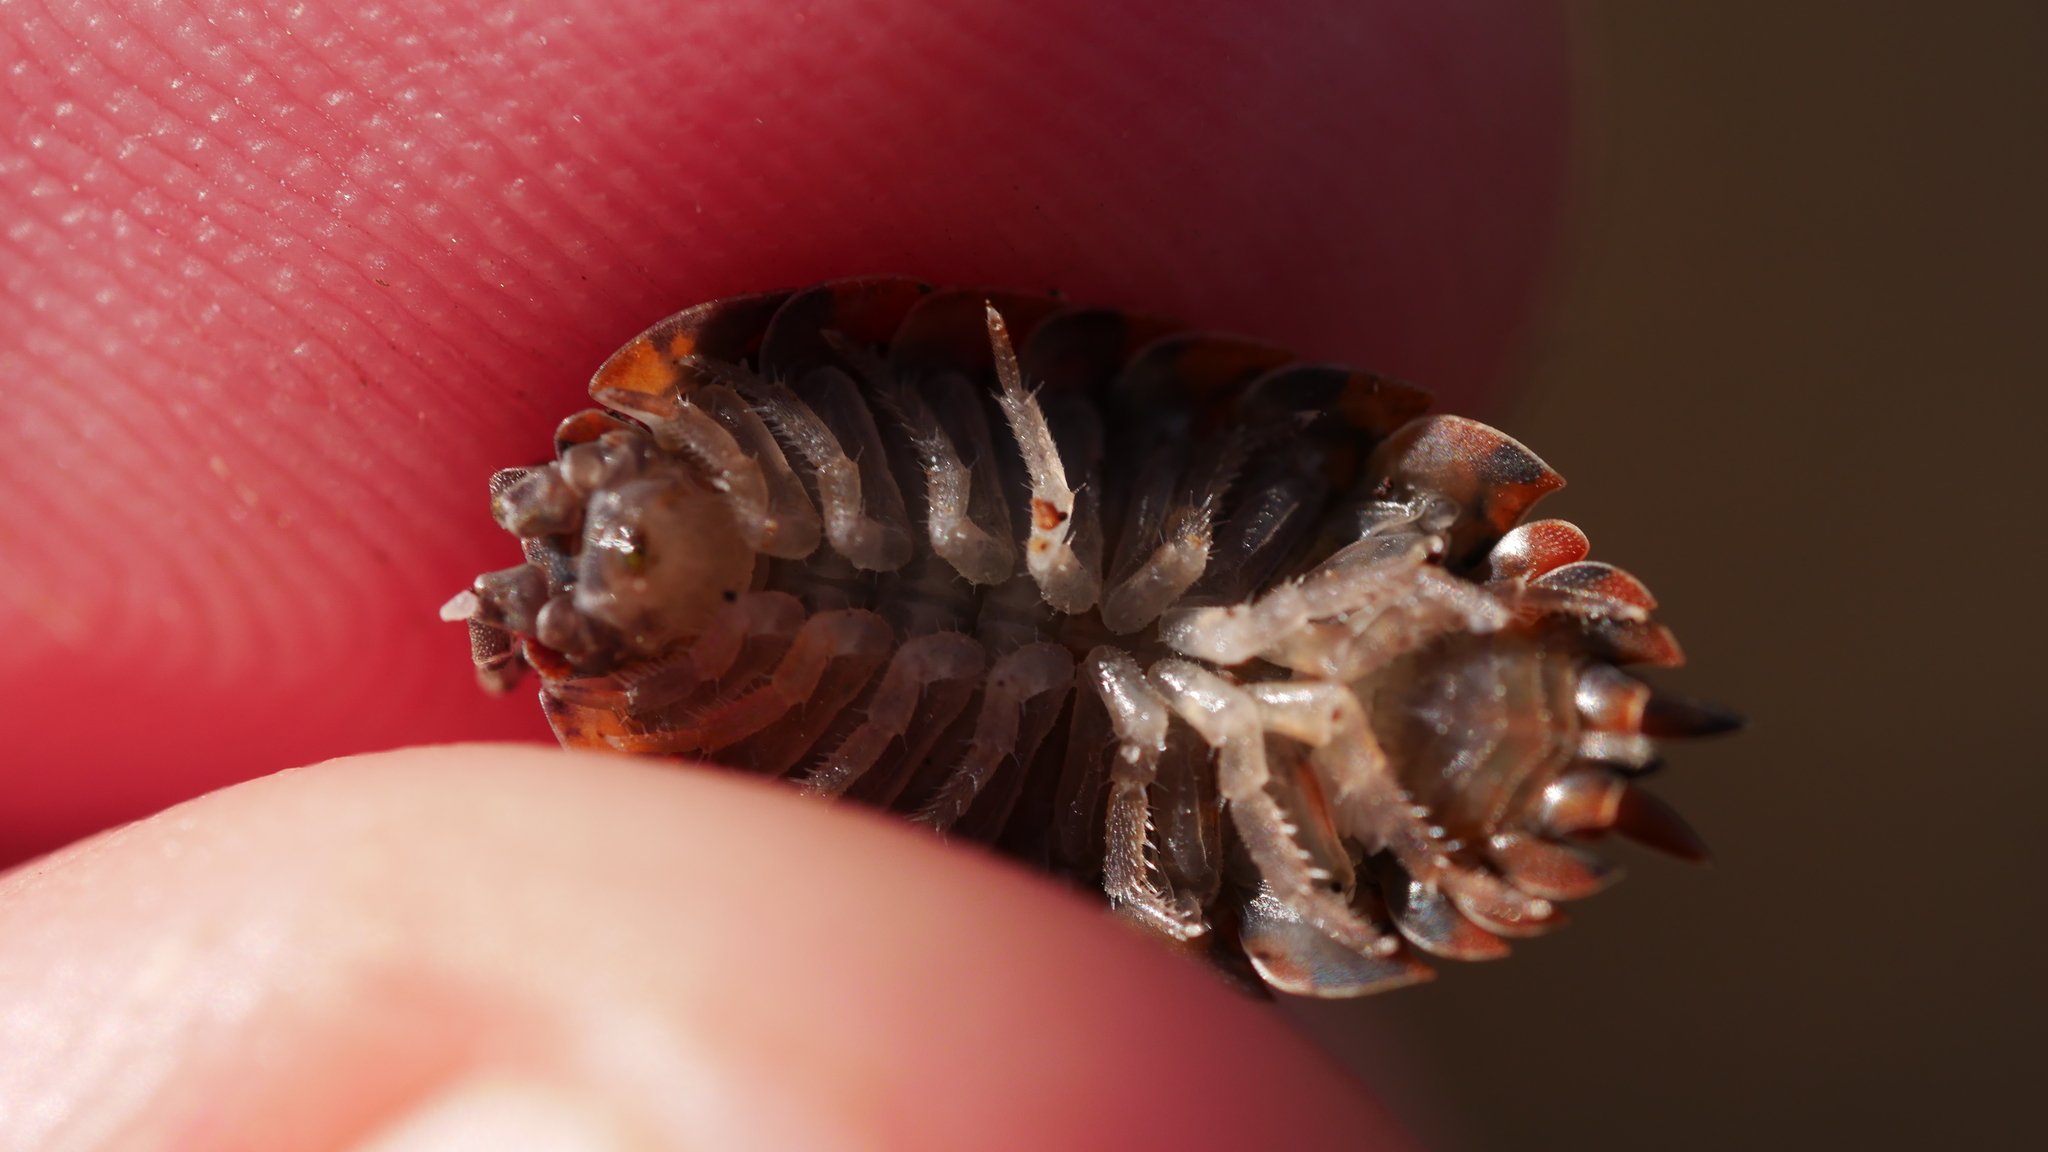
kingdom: Animalia
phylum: Arthropoda
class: Malacostraca
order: Isopoda
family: Porcellionidae
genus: Porcellio
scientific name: Porcellio scaber
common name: Common rough woodlouse
